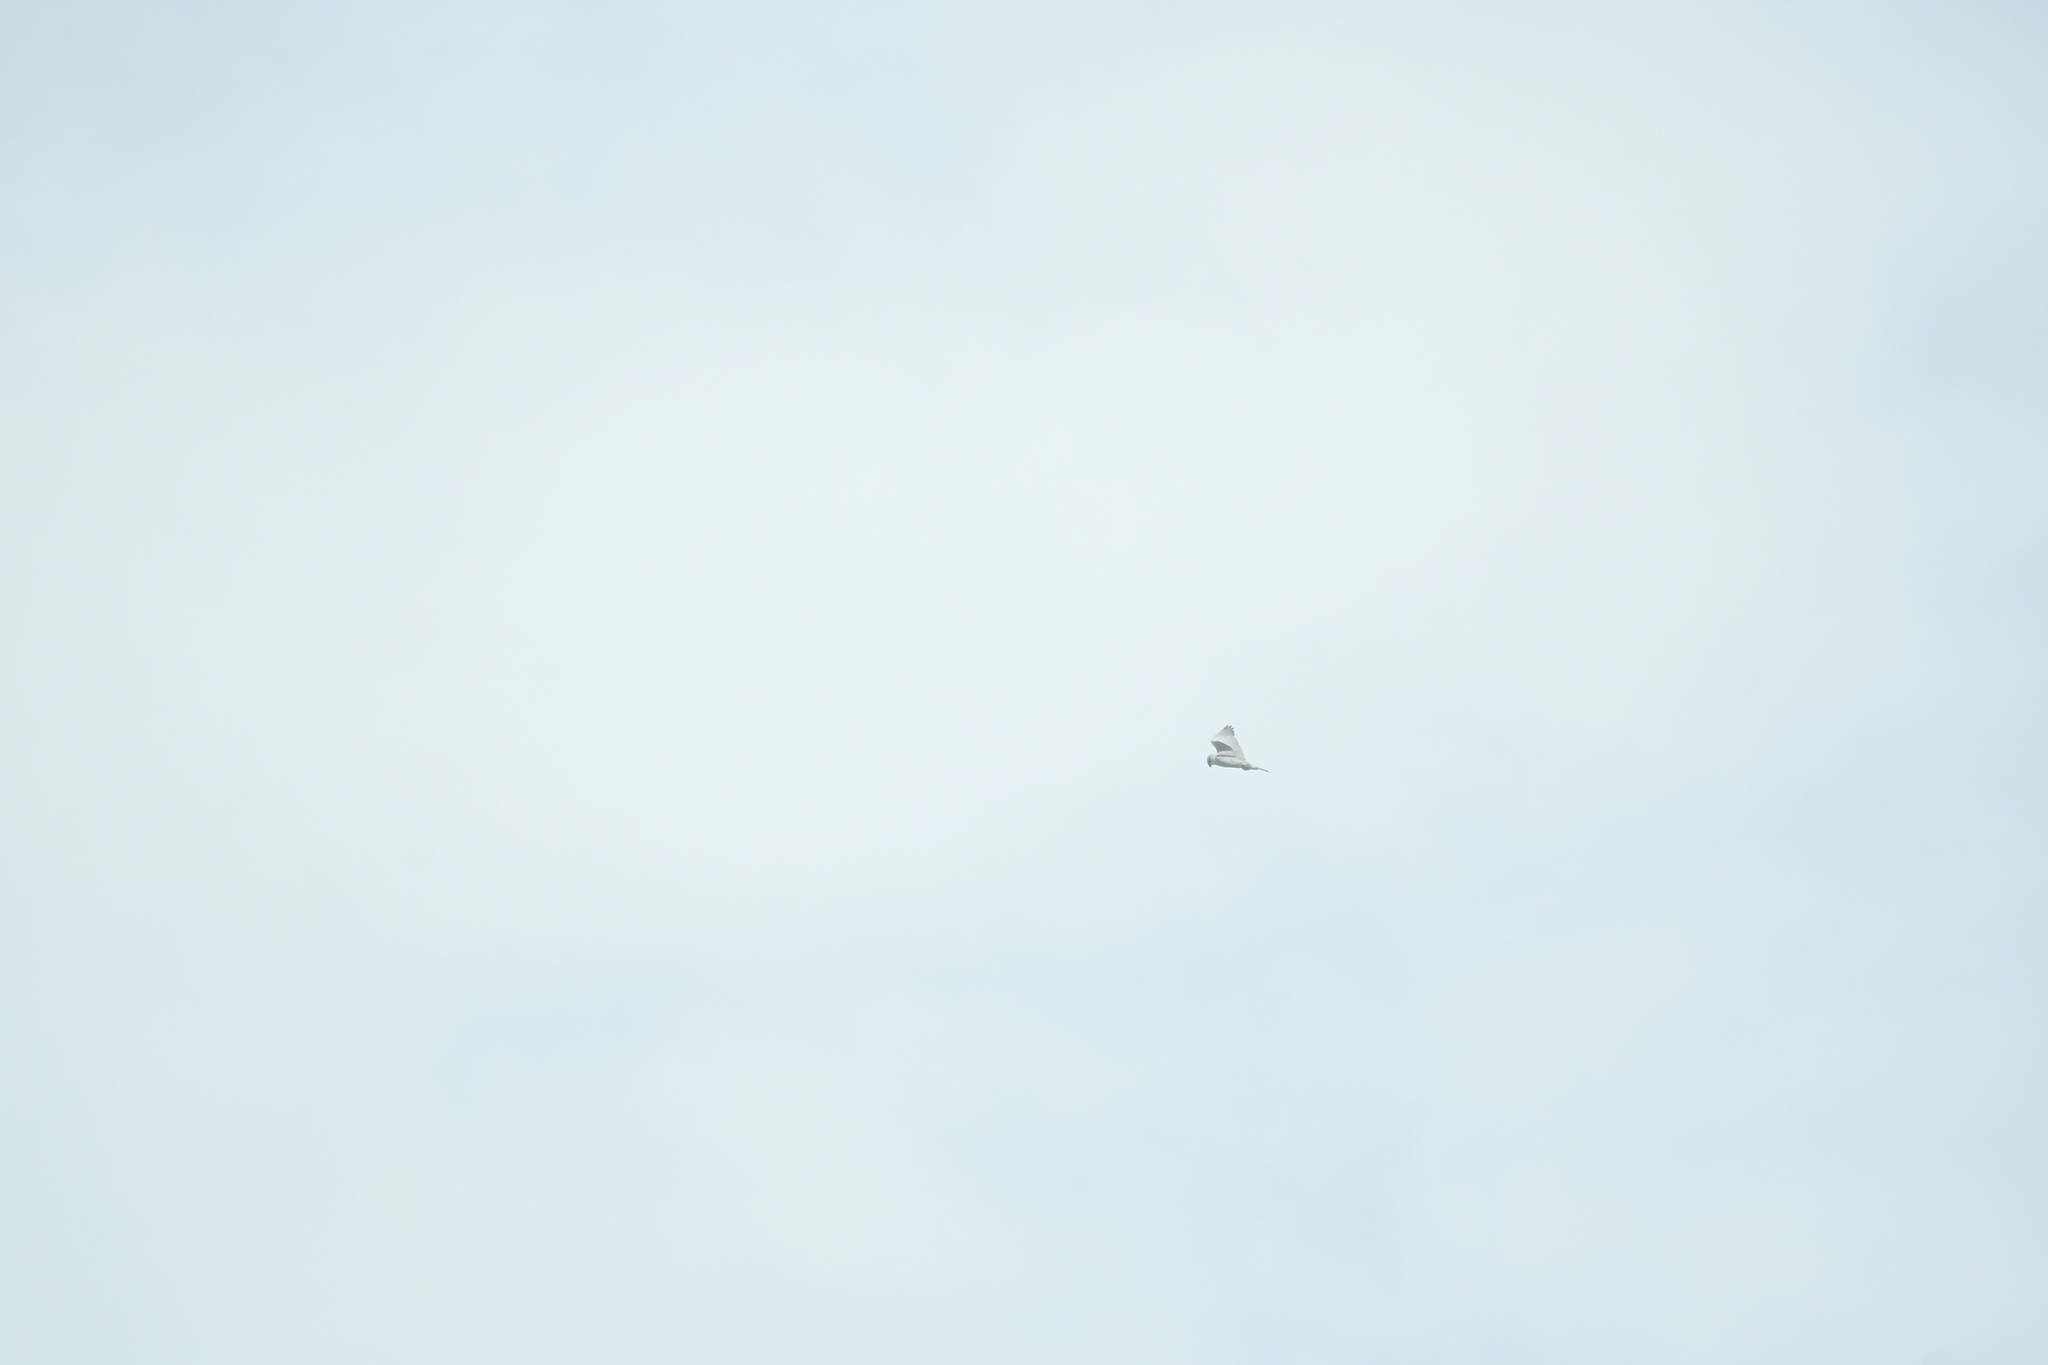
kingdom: Animalia
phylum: Chordata
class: Aves
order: Accipitriformes
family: Accipitridae
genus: Elanus
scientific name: Elanus caeruleus
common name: Black-winged kite
